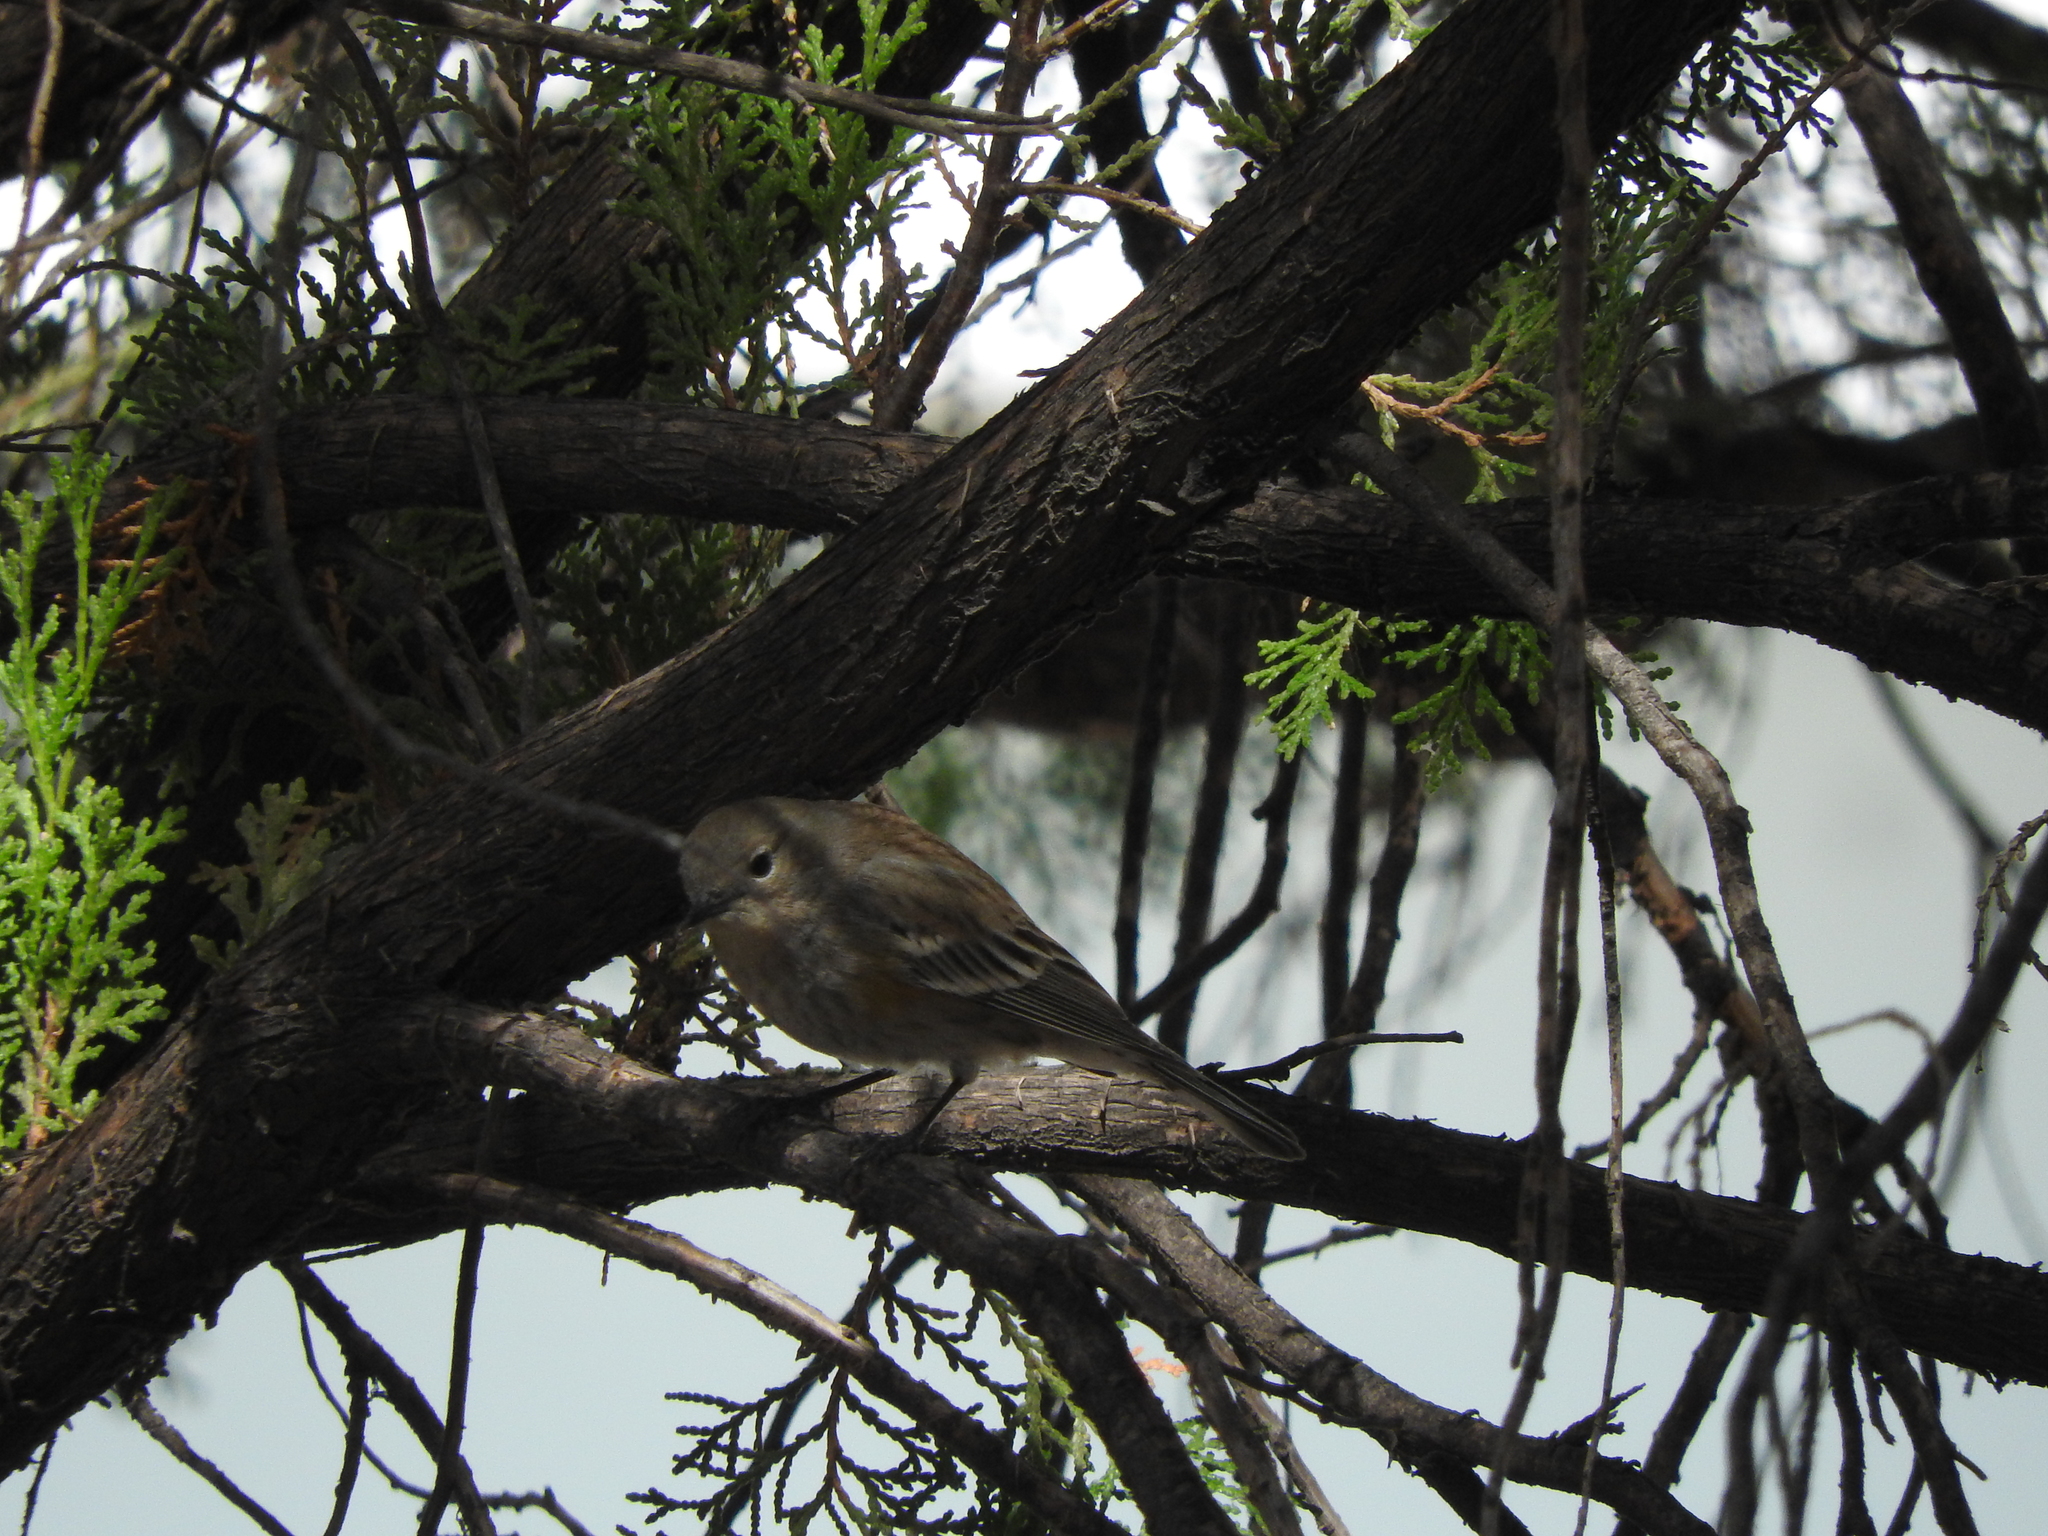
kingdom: Animalia
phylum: Chordata
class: Aves
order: Passeriformes
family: Parulidae
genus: Setophaga
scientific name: Setophaga coronata
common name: Myrtle warbler
